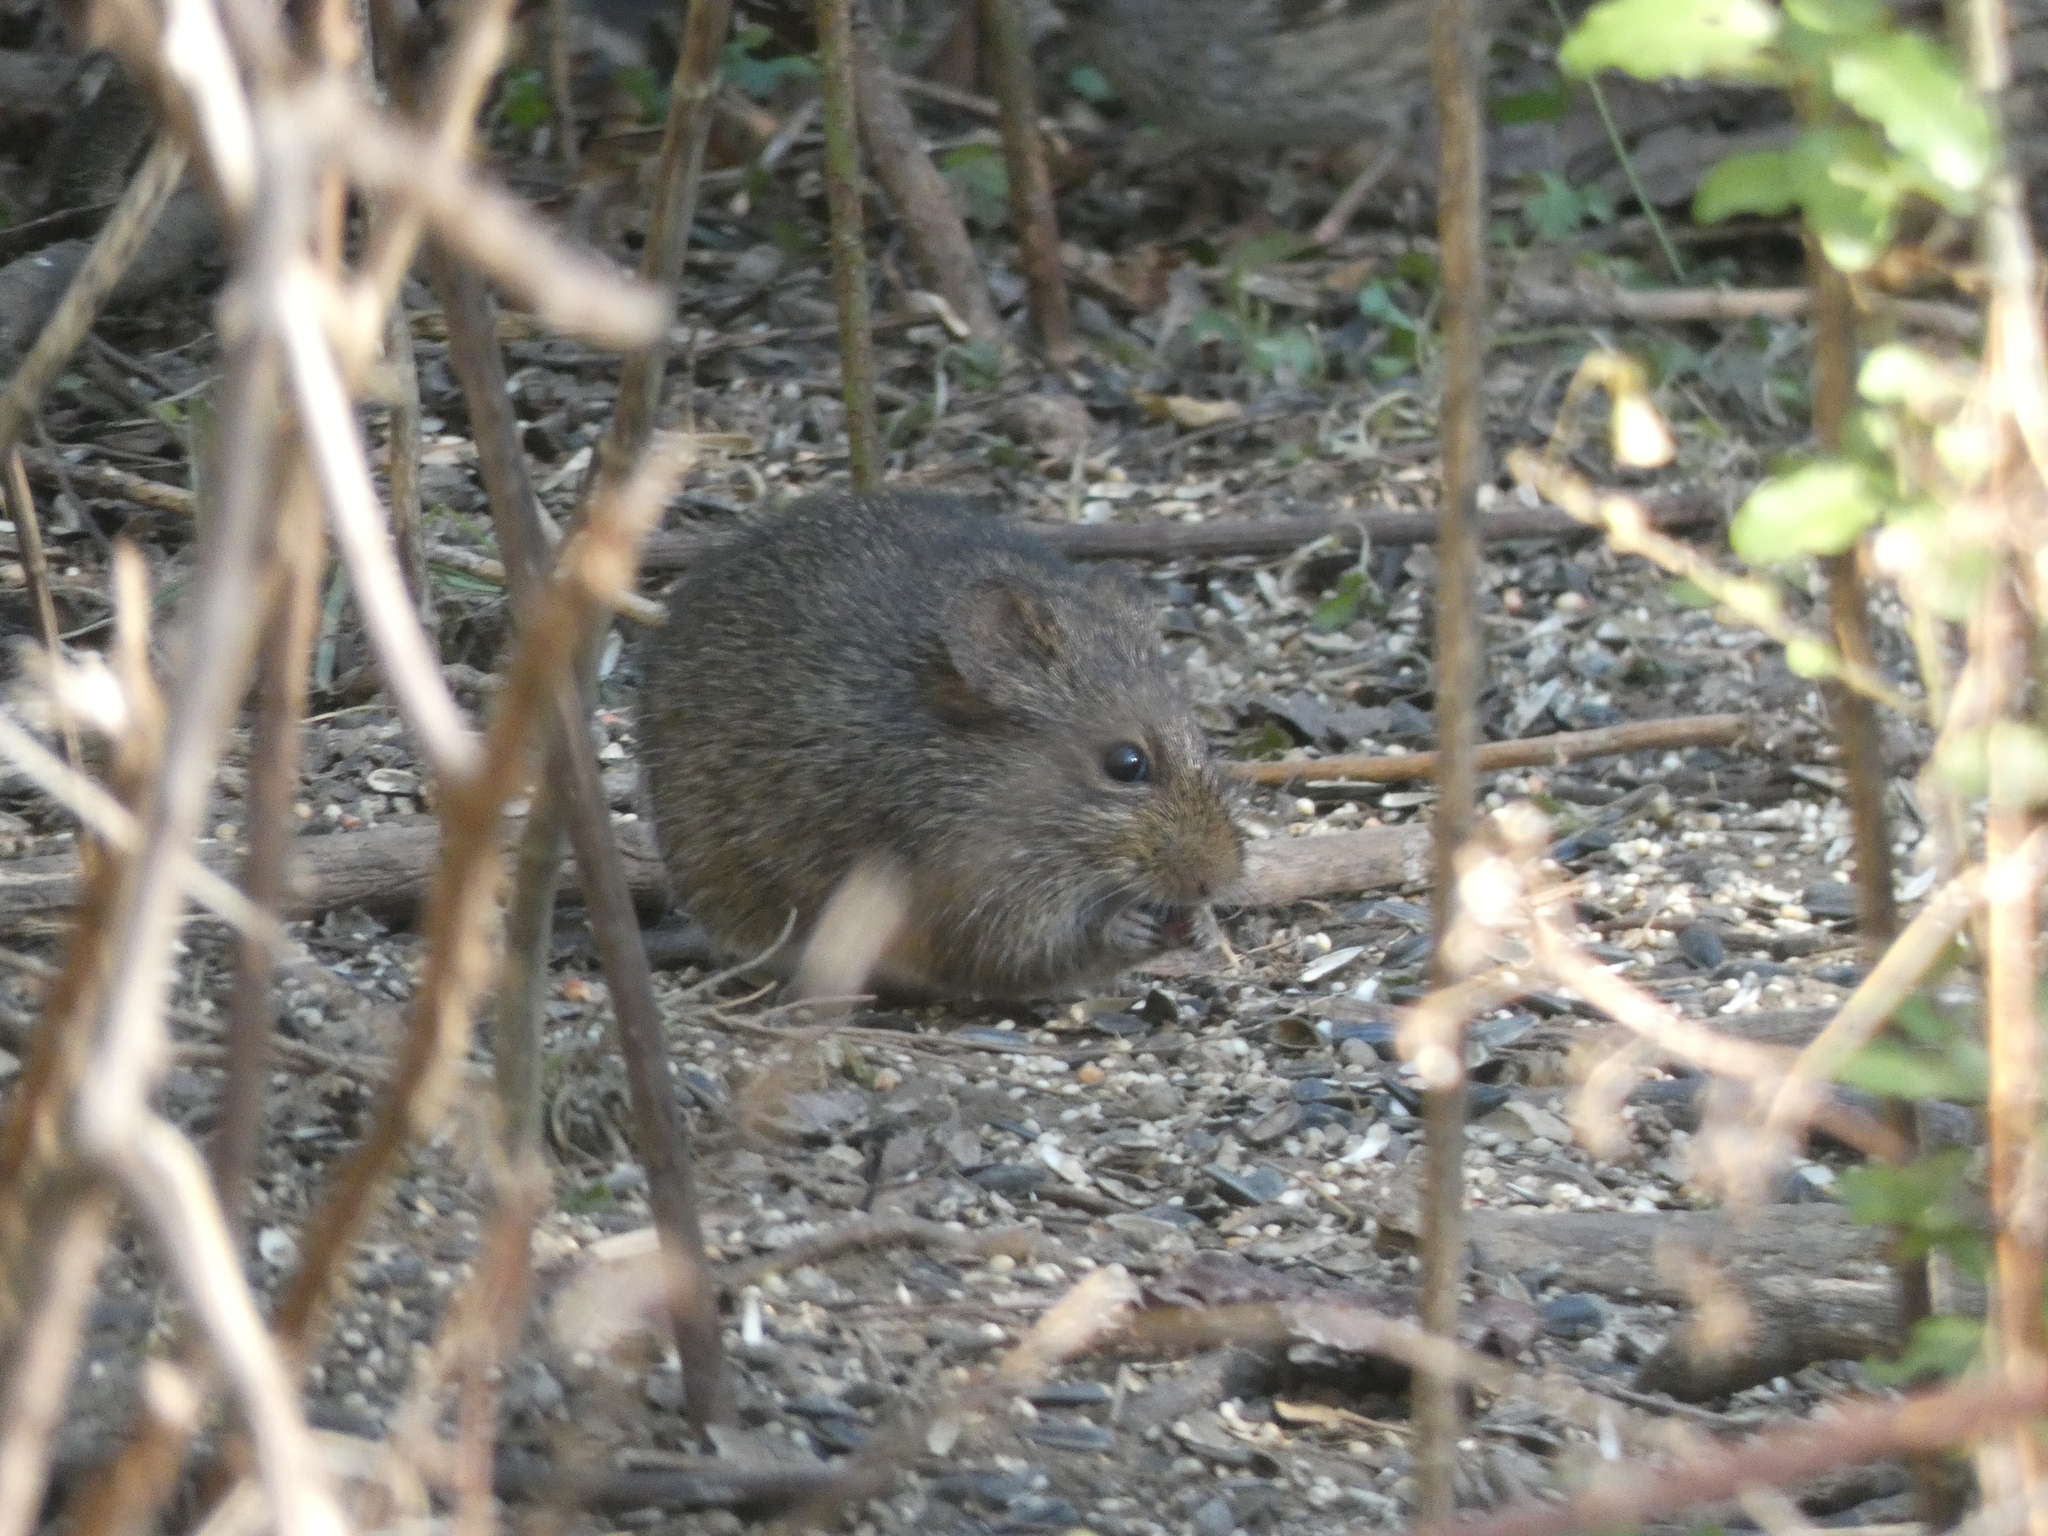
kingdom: Animalia
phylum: Chordata
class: Mammalia
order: Rodentia
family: Cricetidae
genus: Sigmodon
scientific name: Sigmodon hispidus
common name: Hispid cotton rat
